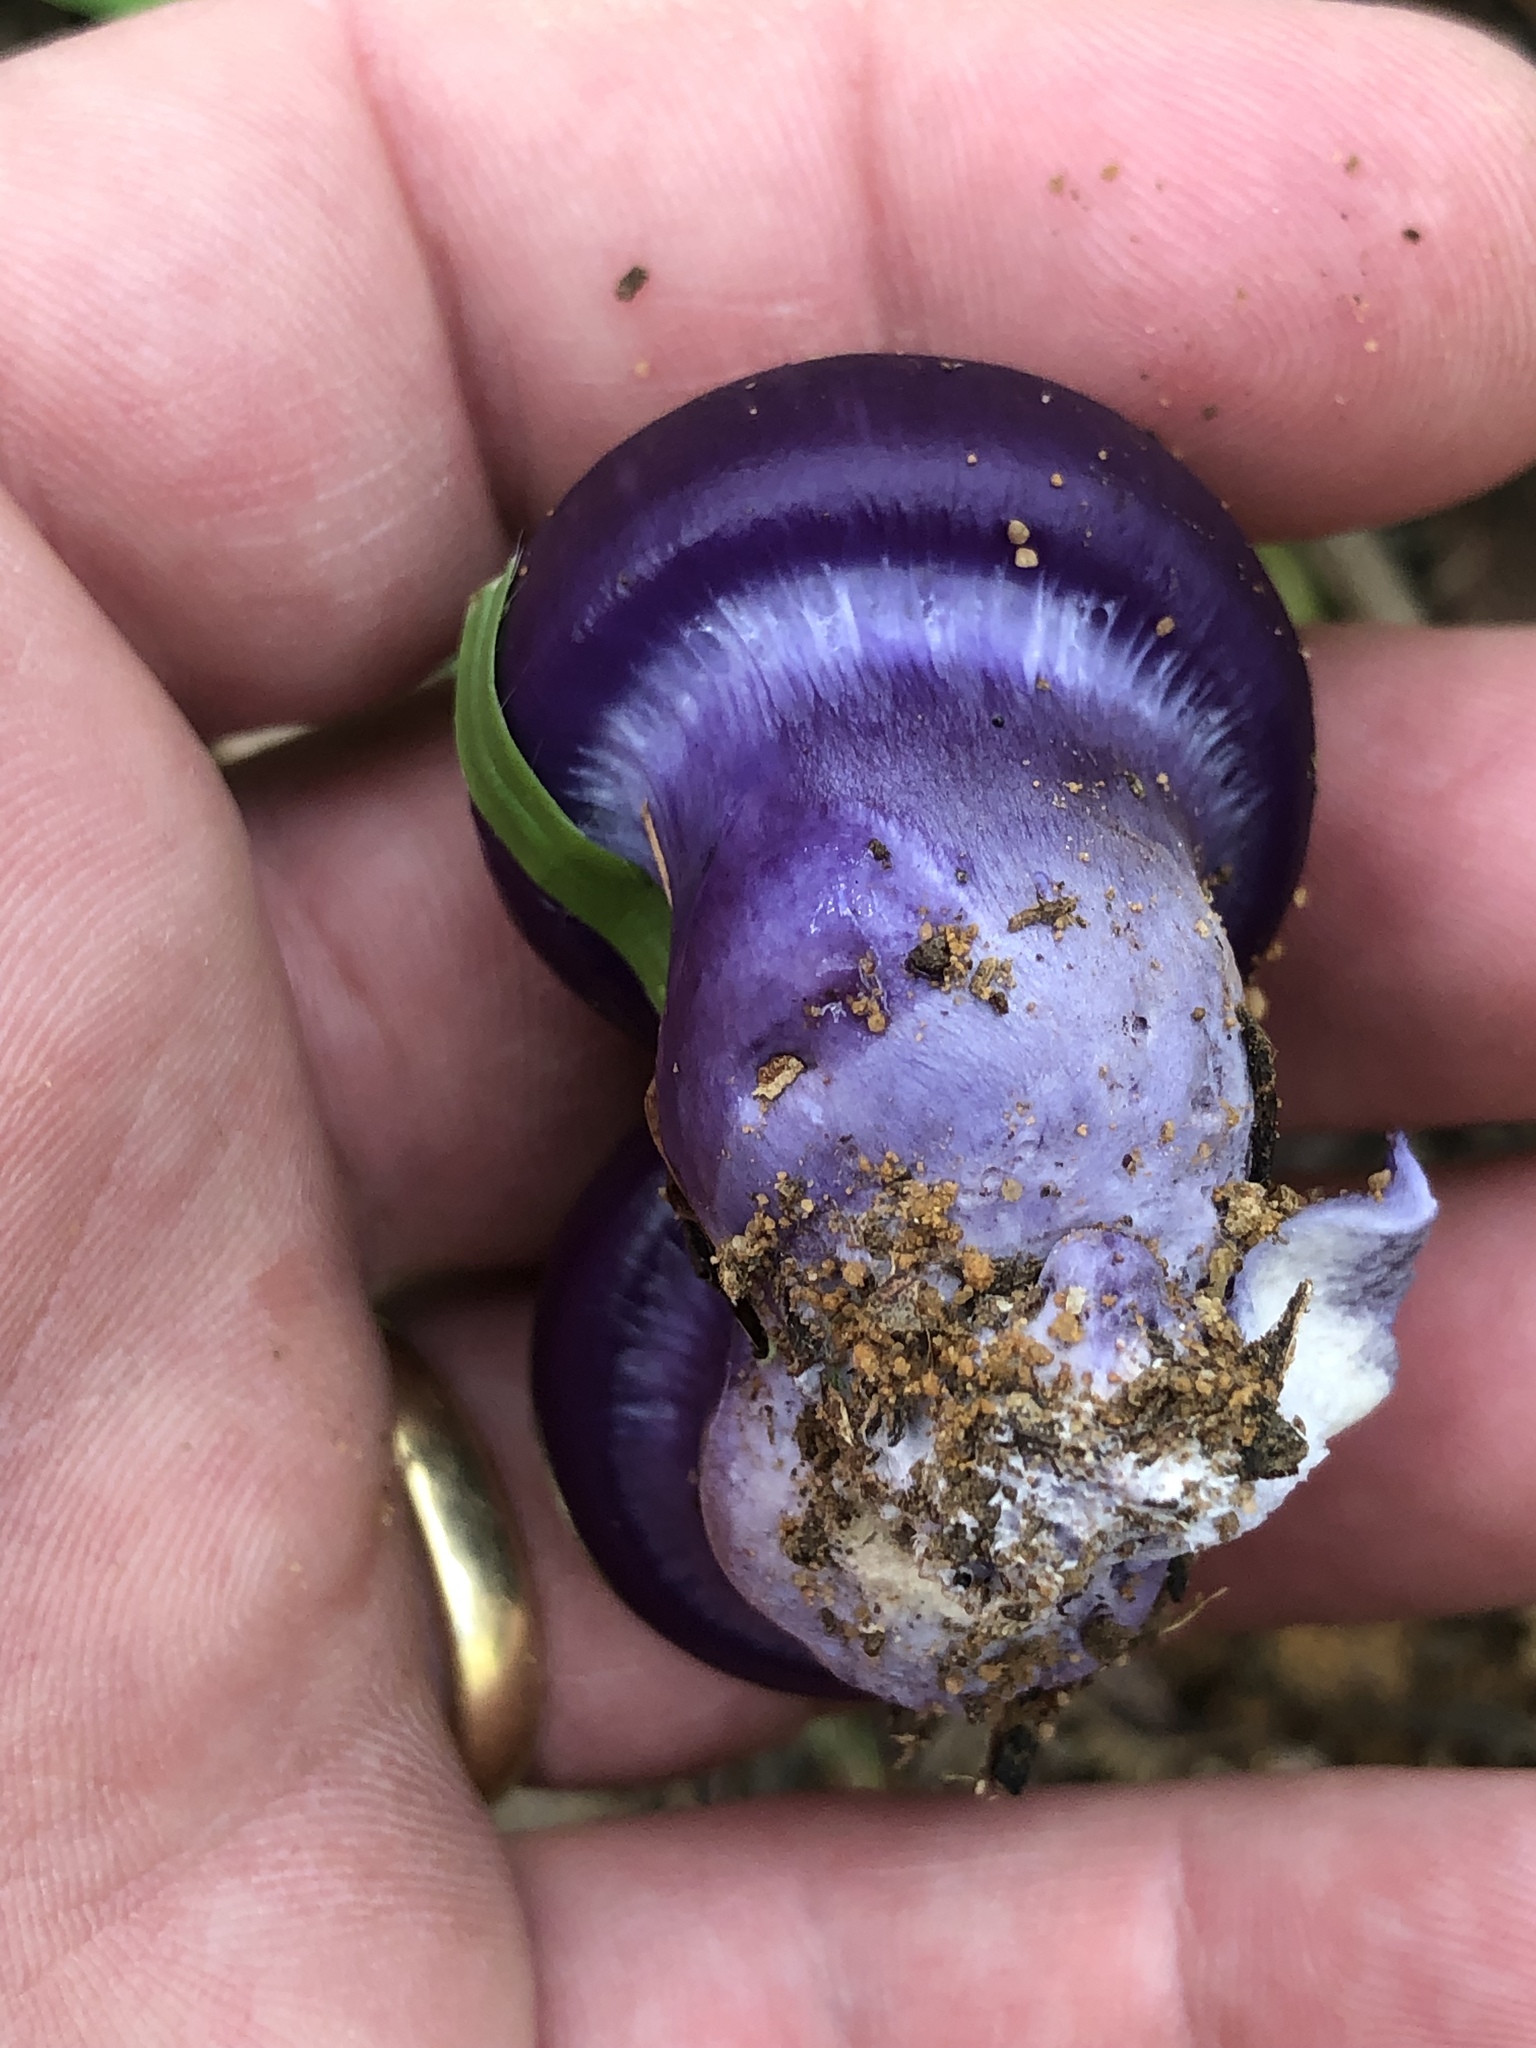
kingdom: Fungi
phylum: Basidiomycota
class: Agaricomycetes
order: Agaricales
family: Cortinariaceae
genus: Cortinarius
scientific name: Cortinarius archeri
